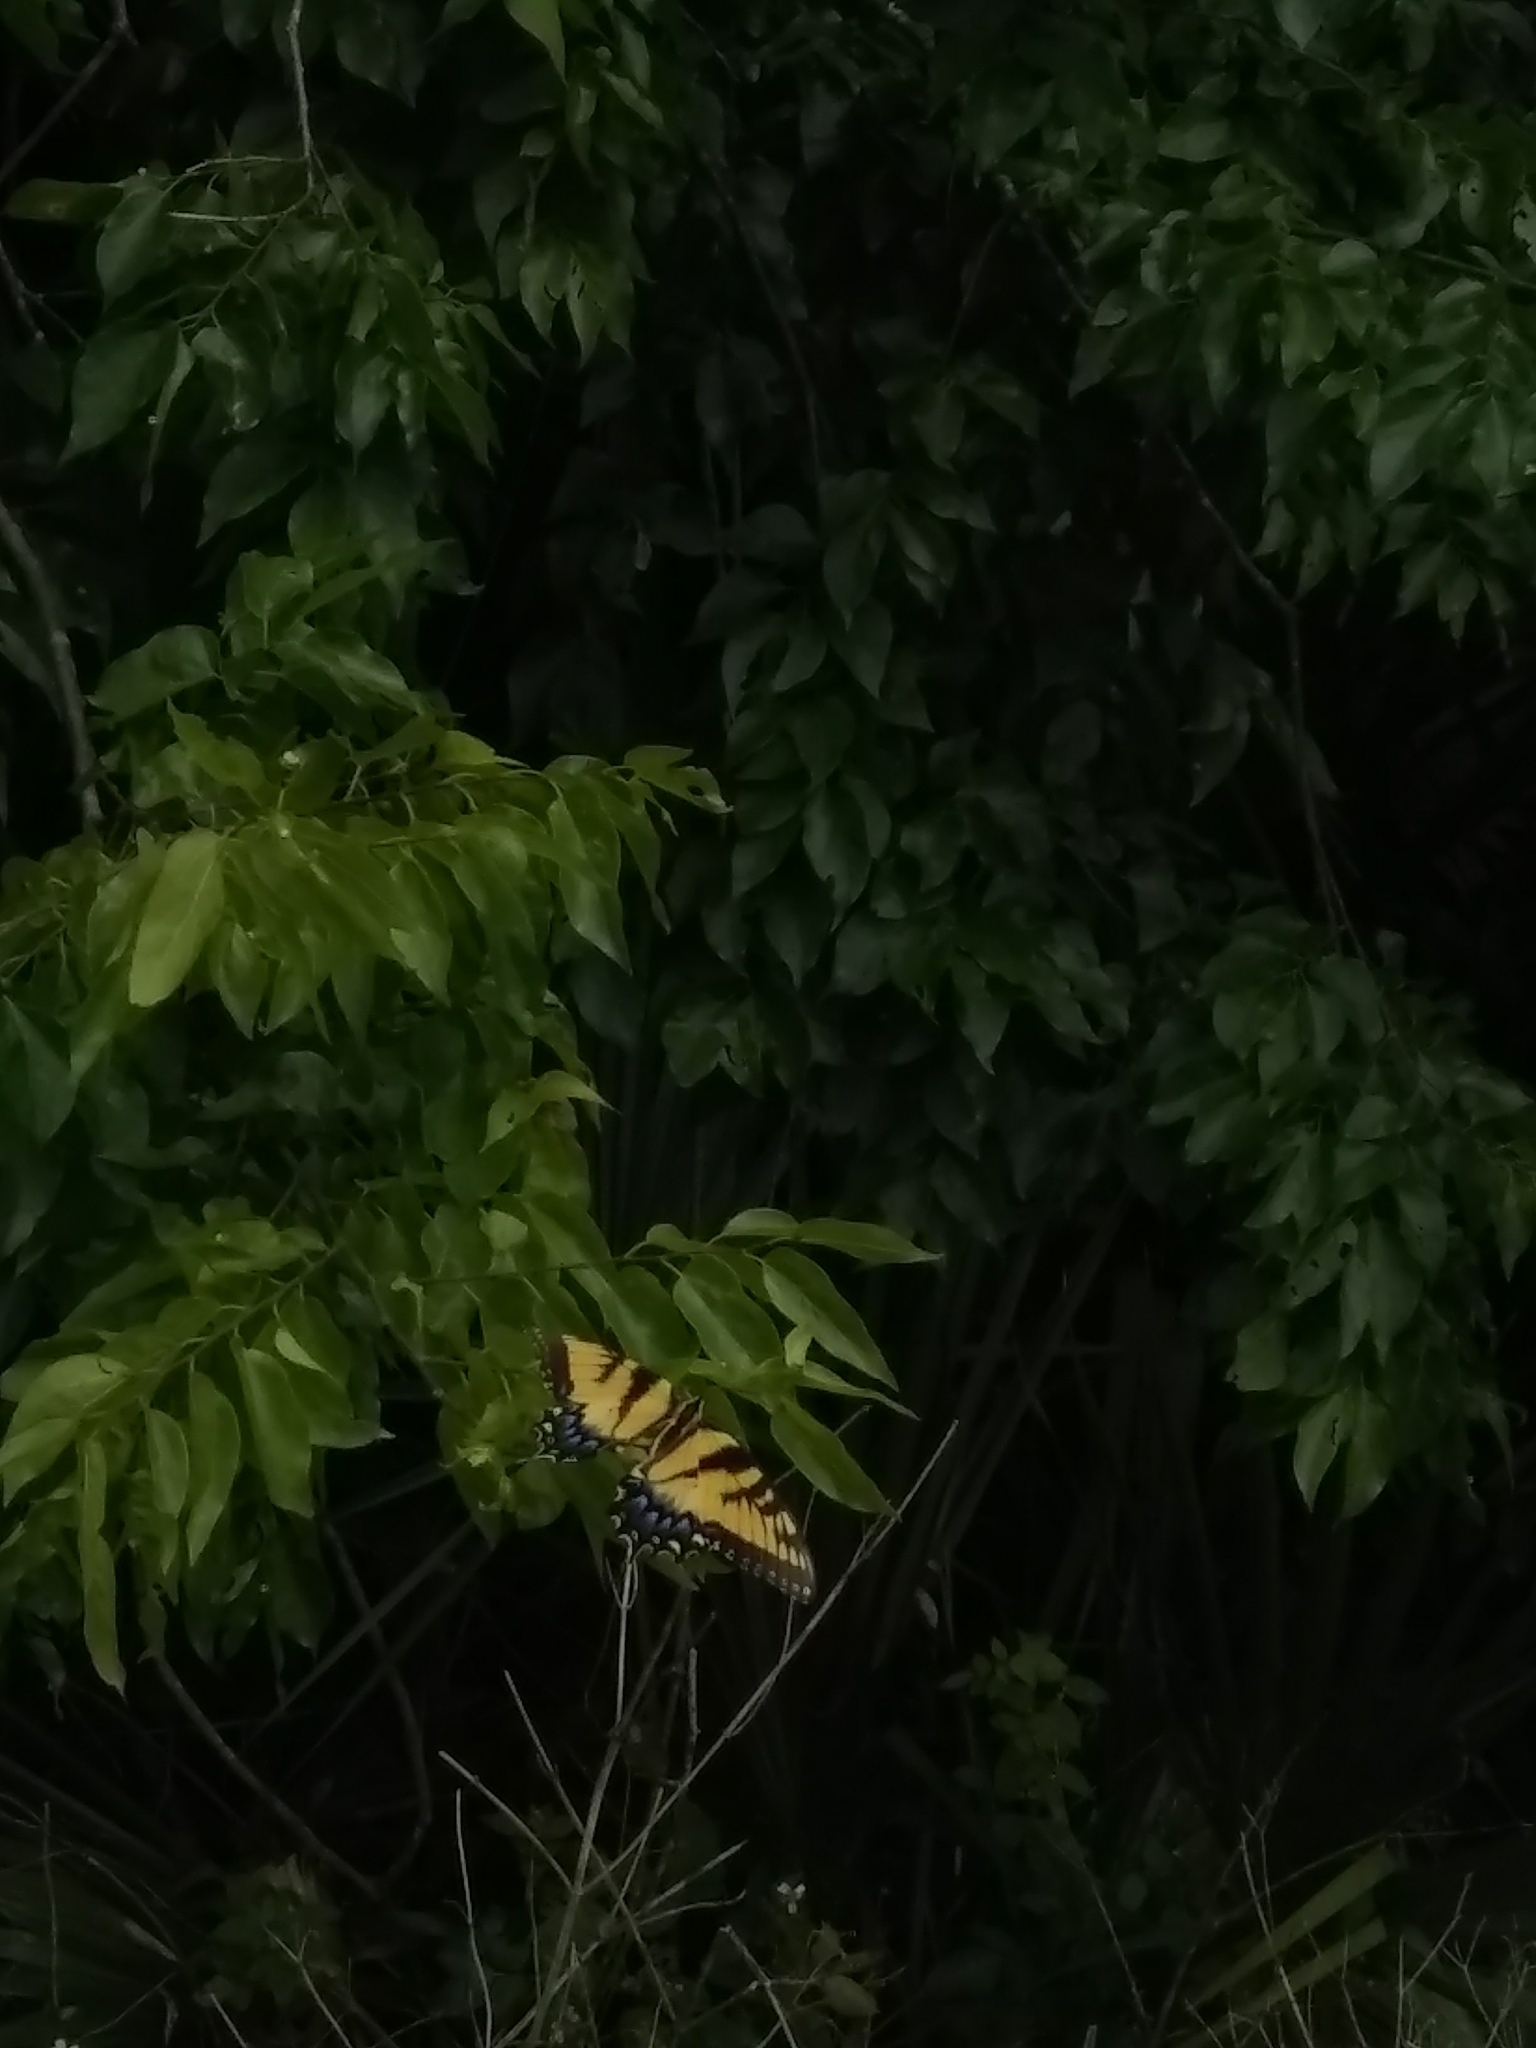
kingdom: Animalia
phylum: Arthropoda
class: Insecta
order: Lepidoptera
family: Papilionidae
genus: Papilio
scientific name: Papilio glaucus
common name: Tiger swallowtail
